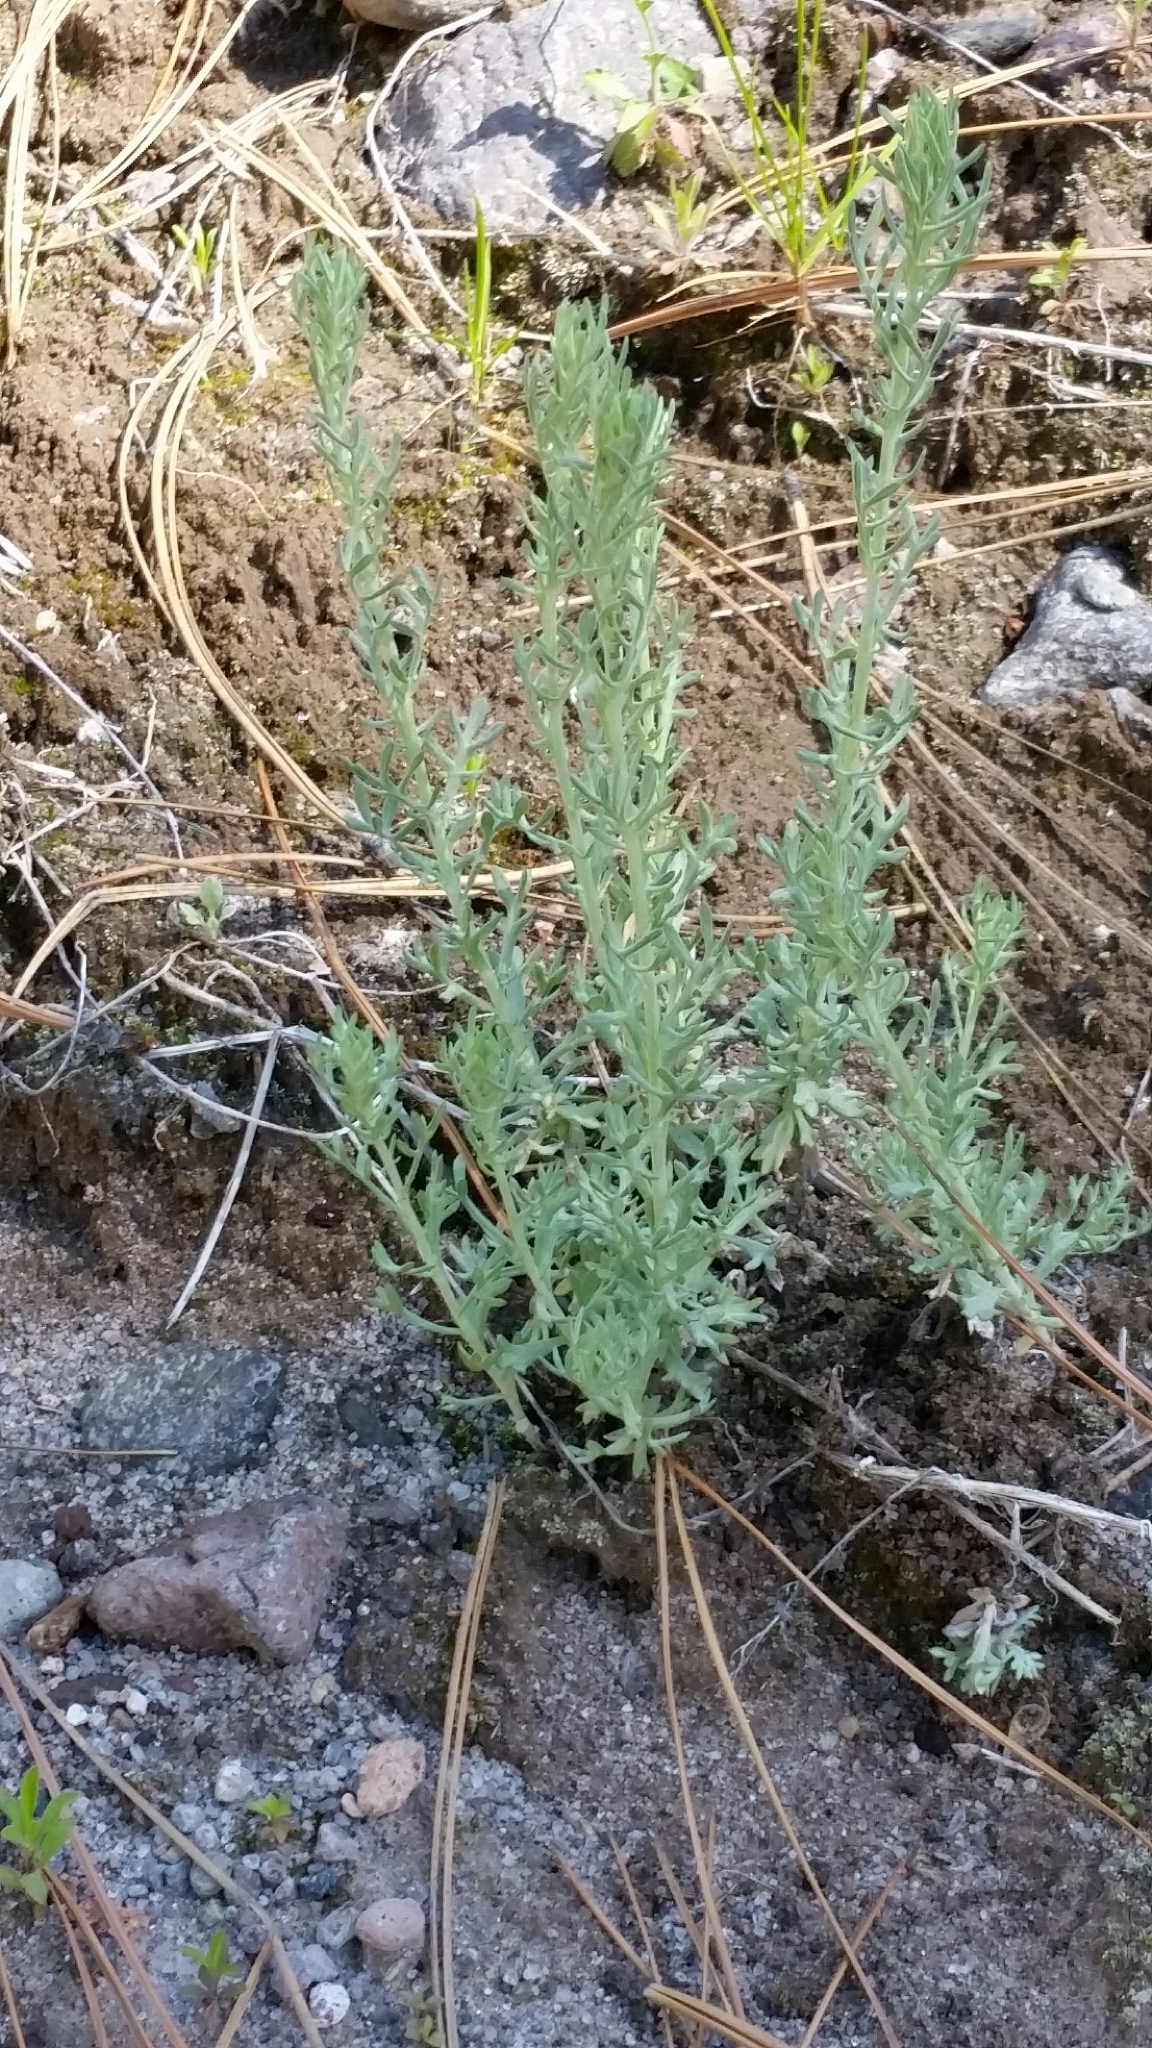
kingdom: Plantae
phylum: Tracheophyta
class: Magnoliopsida
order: Asterales
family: Asteraceae
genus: Artemisia
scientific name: Artemisia carruthii
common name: Carruth wormwood
